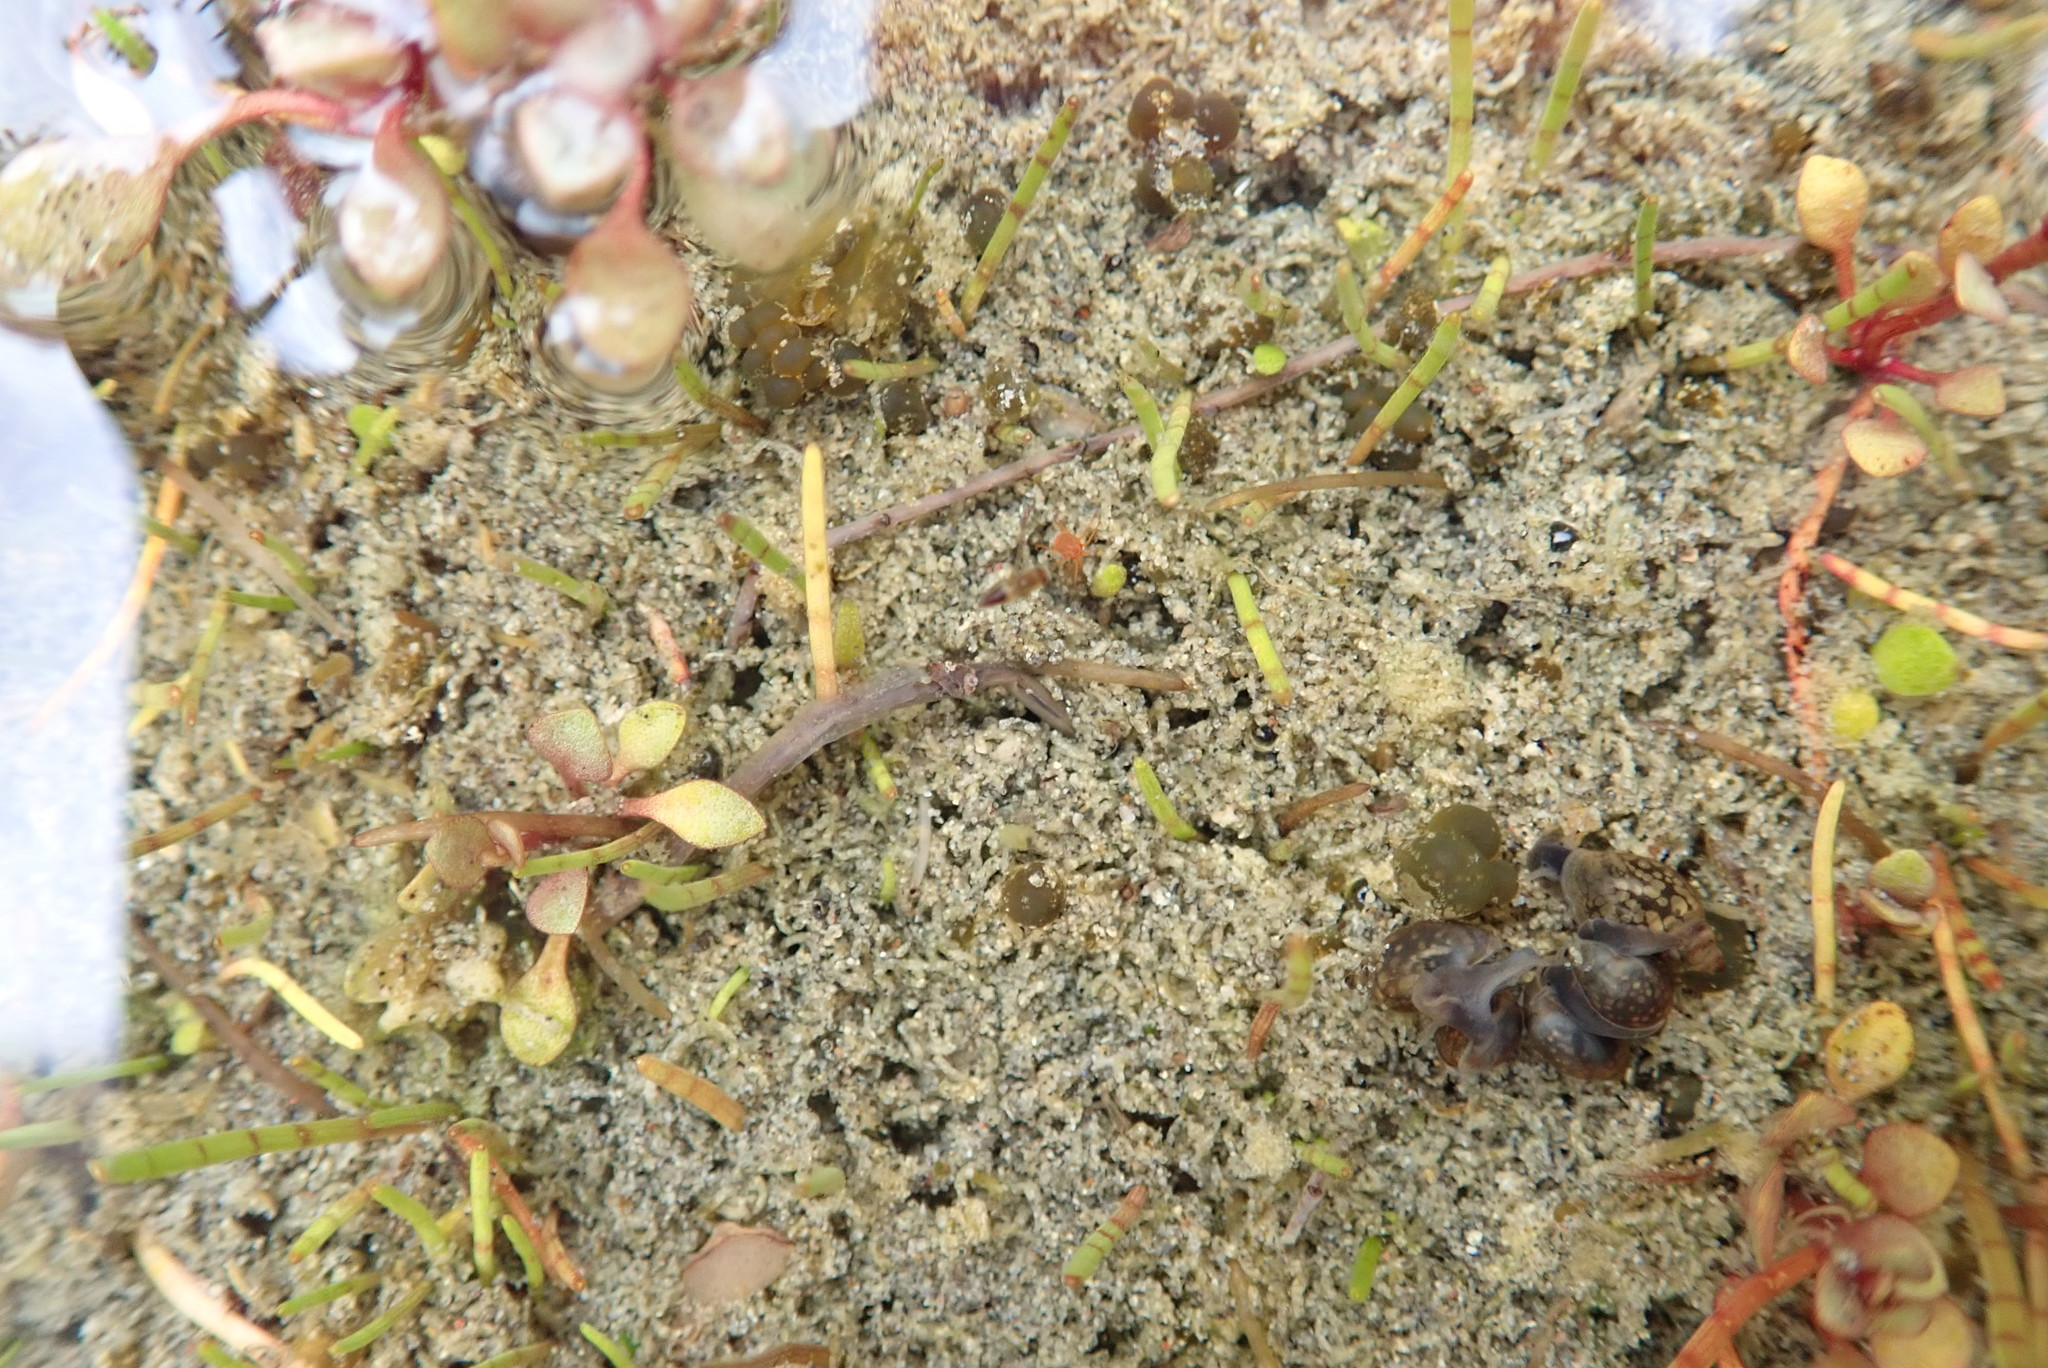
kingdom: Animalia
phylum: Mollusca
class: Gastropoda
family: Physidae
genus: Physella
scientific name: Physella acuta
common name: European physa
